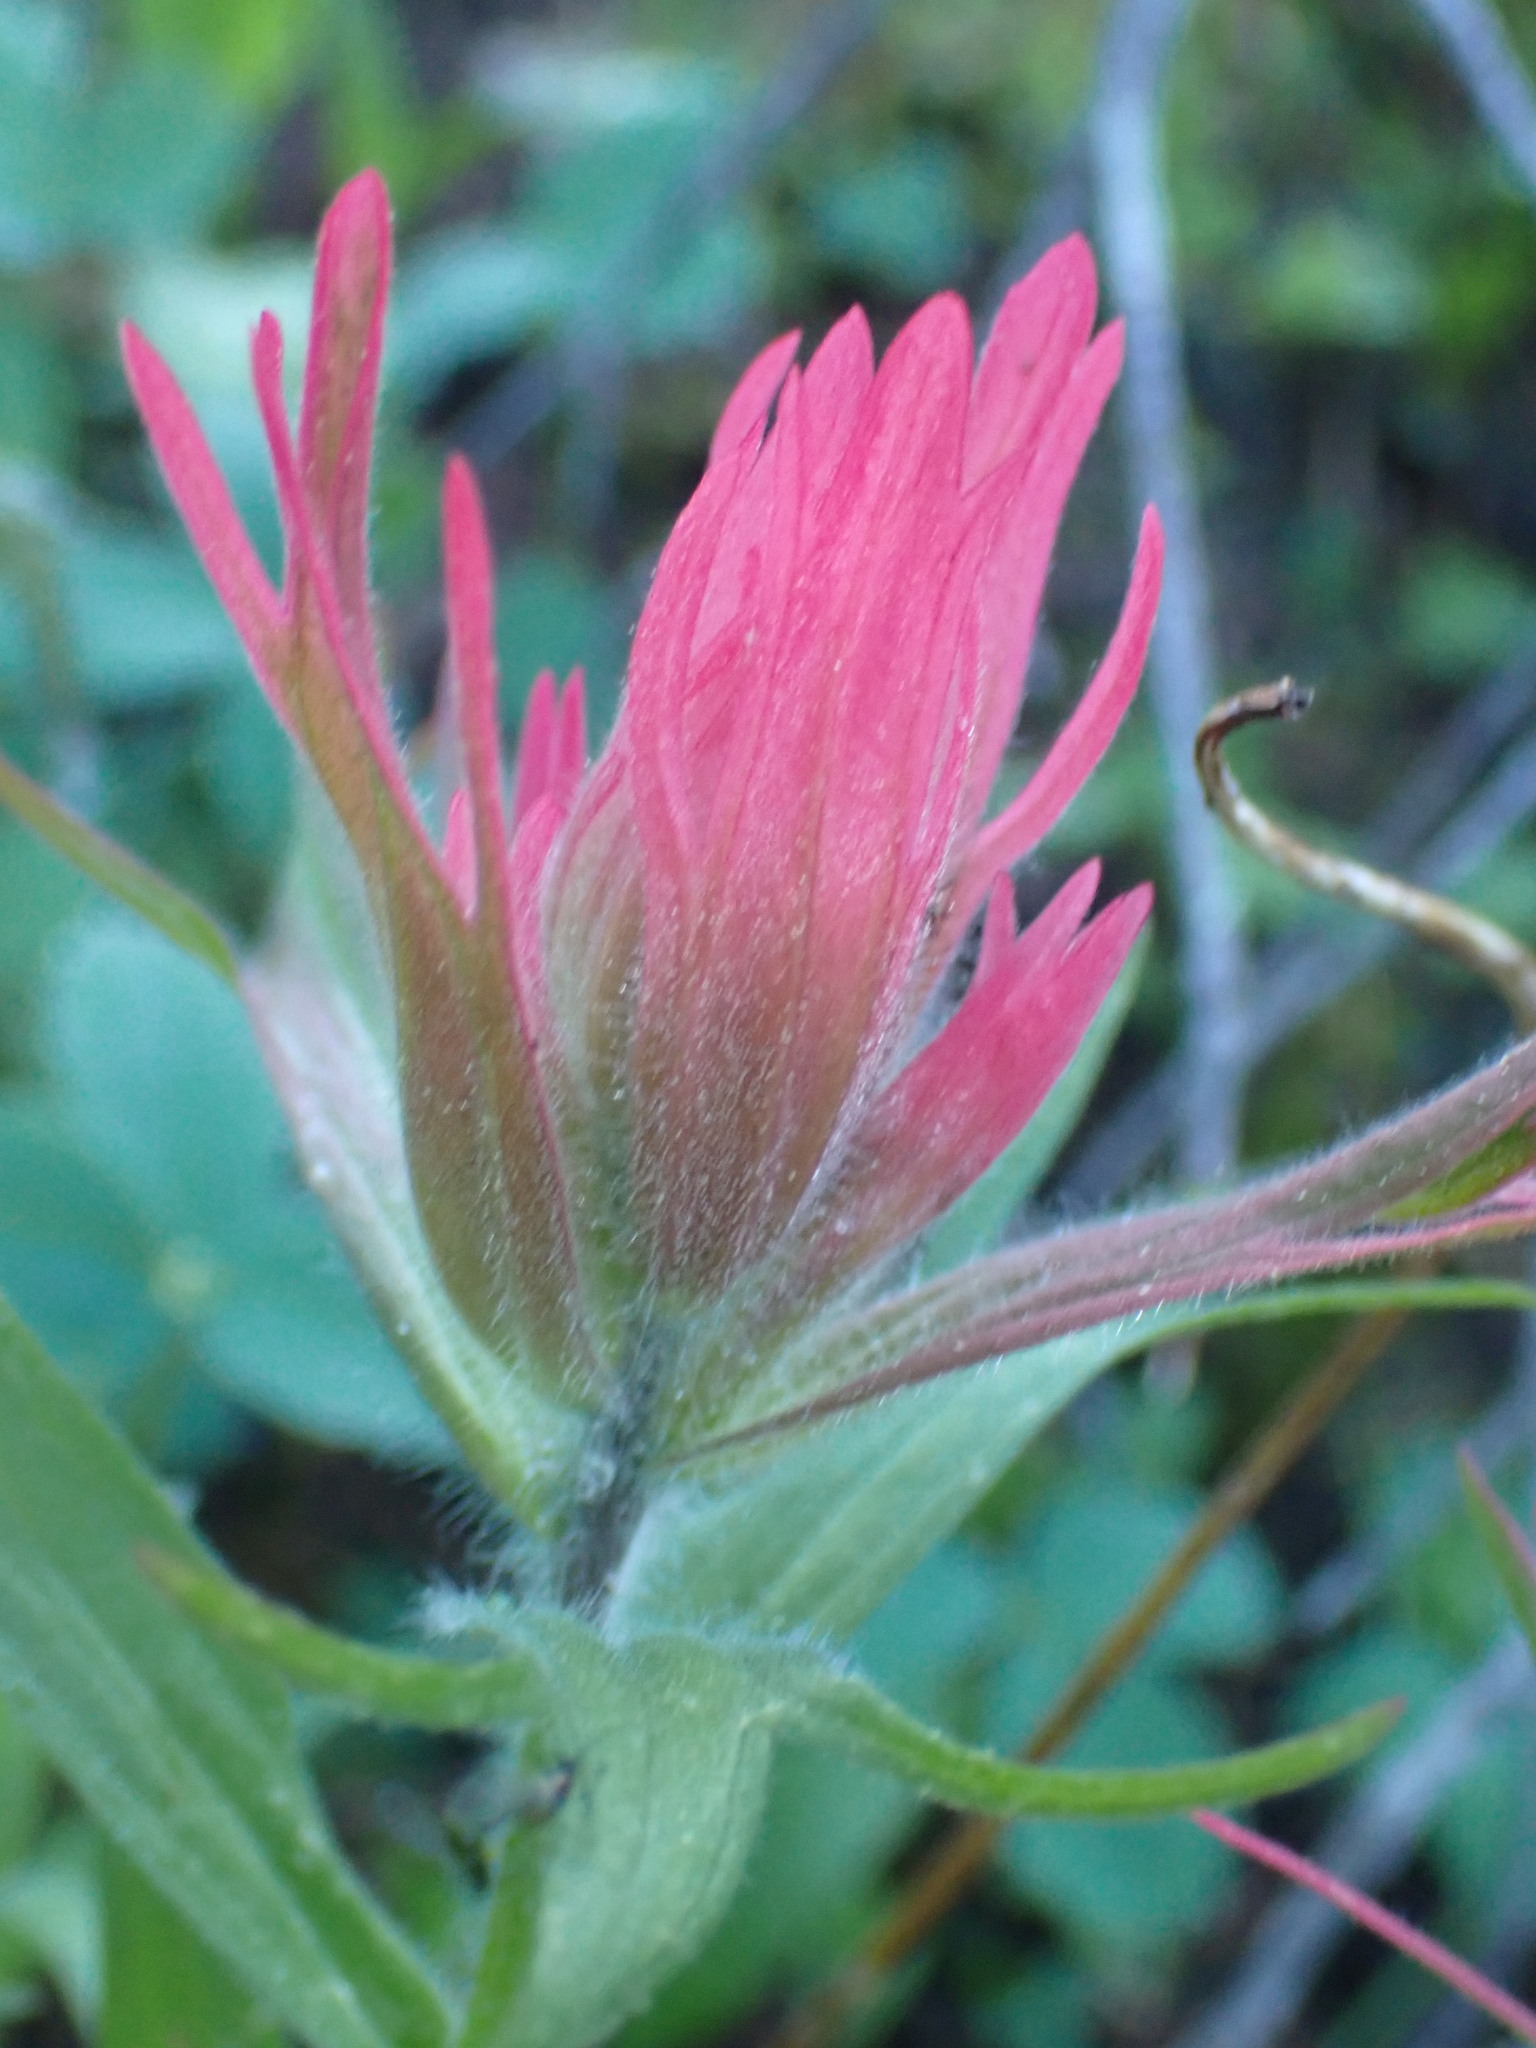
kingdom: Plantae
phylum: Tracheophyta
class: Magnoliopsida
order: Lamiales
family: Orobanchaceae
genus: Castilleja
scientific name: Castilleja rhexifolia
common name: Rocky mountain paintbrush
